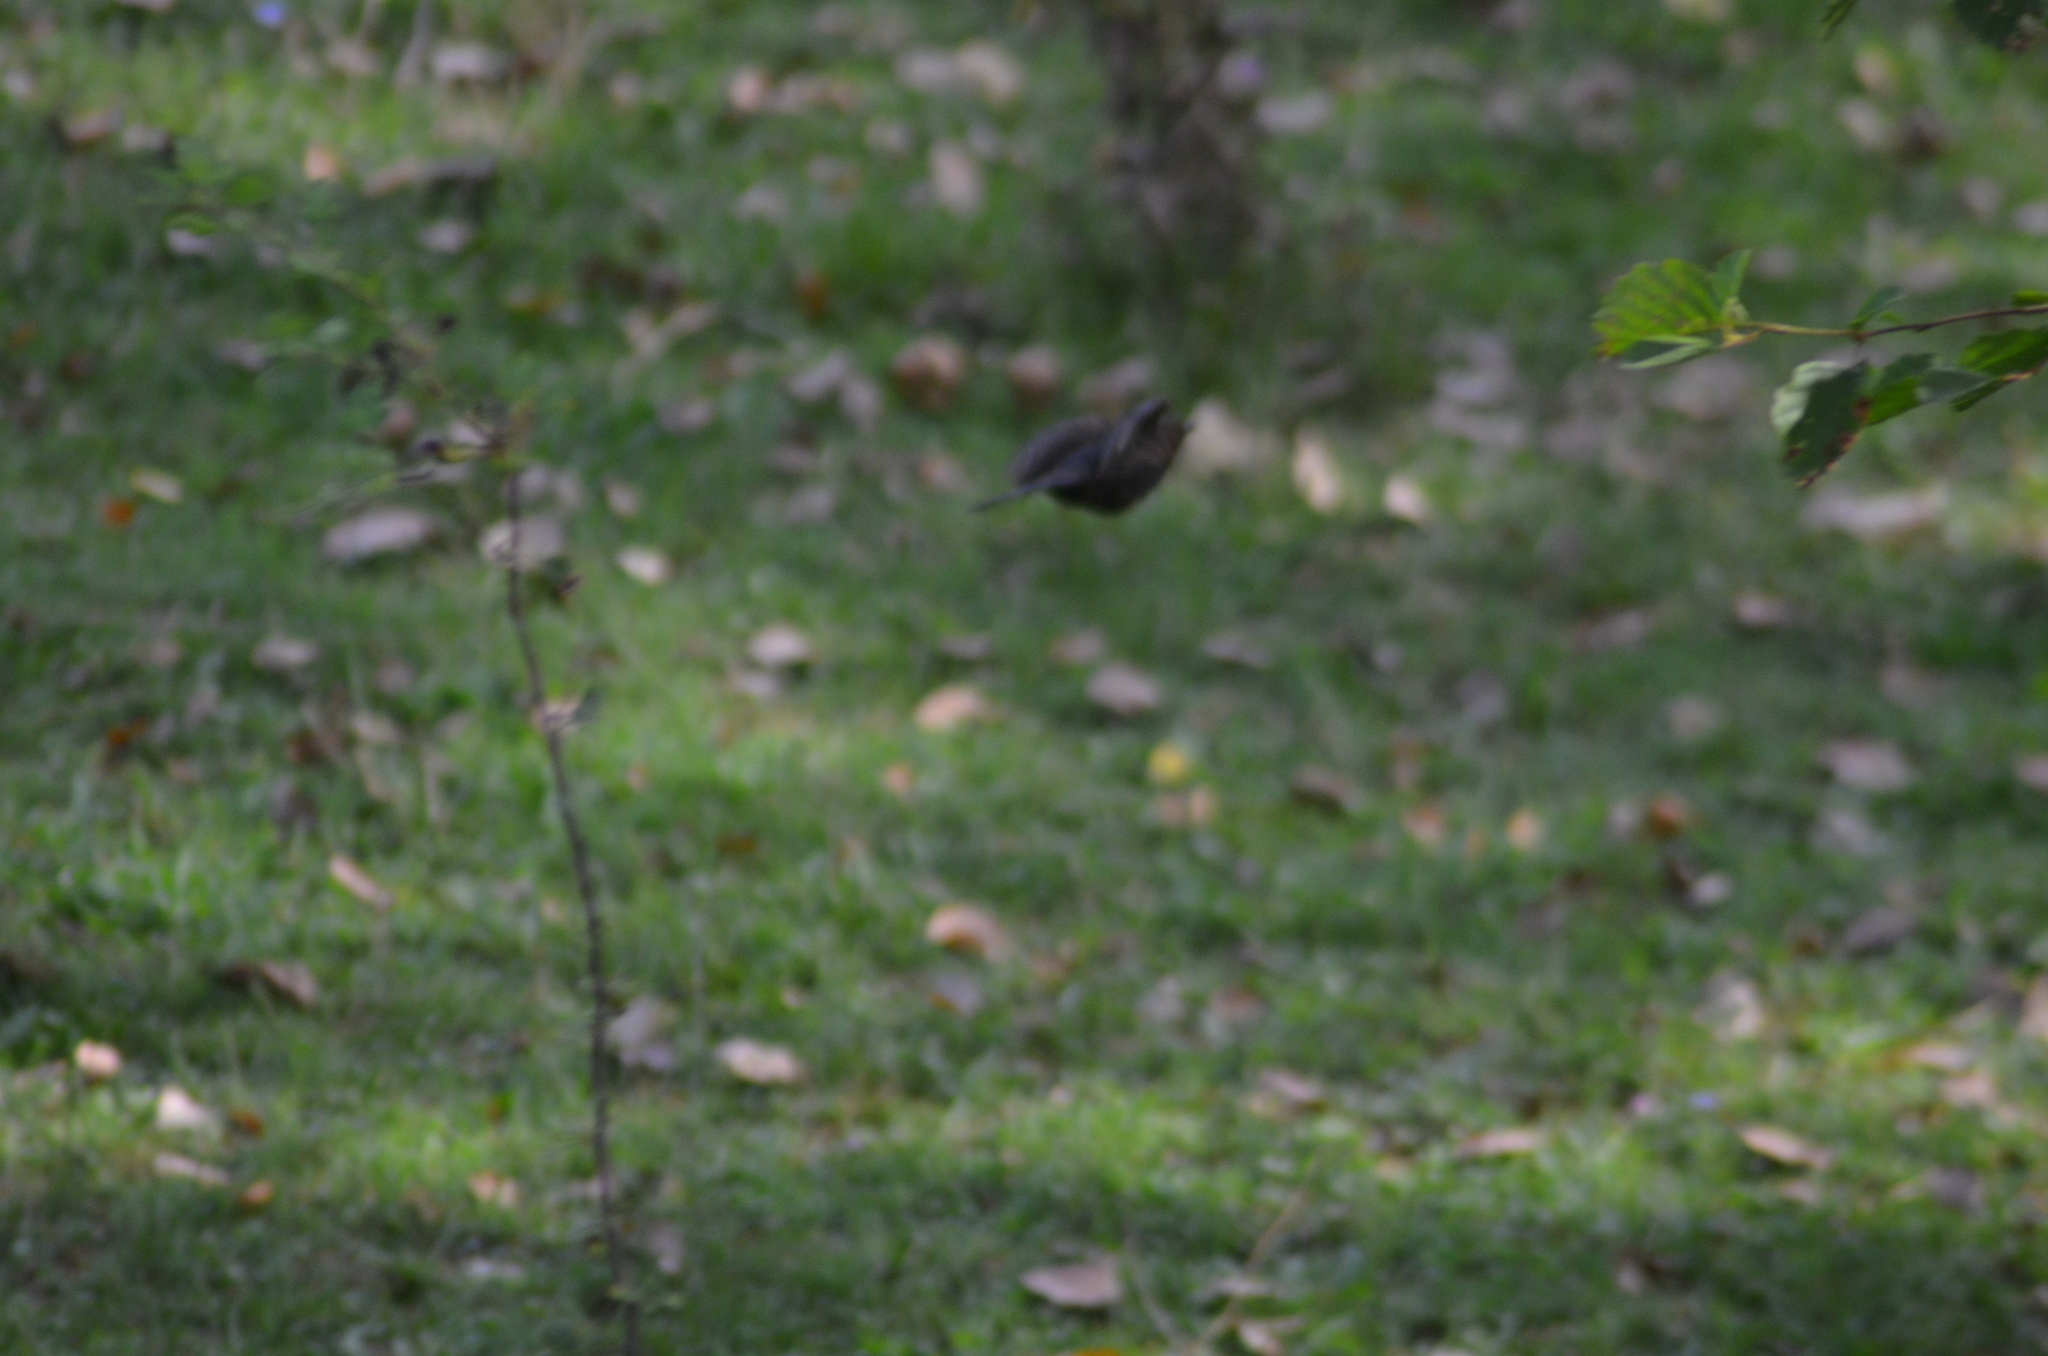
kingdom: Animalia
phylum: Chordata
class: Aves
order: Passeriformes
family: Turdidae
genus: Turdus
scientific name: Turdus merula
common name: Common blackbird
